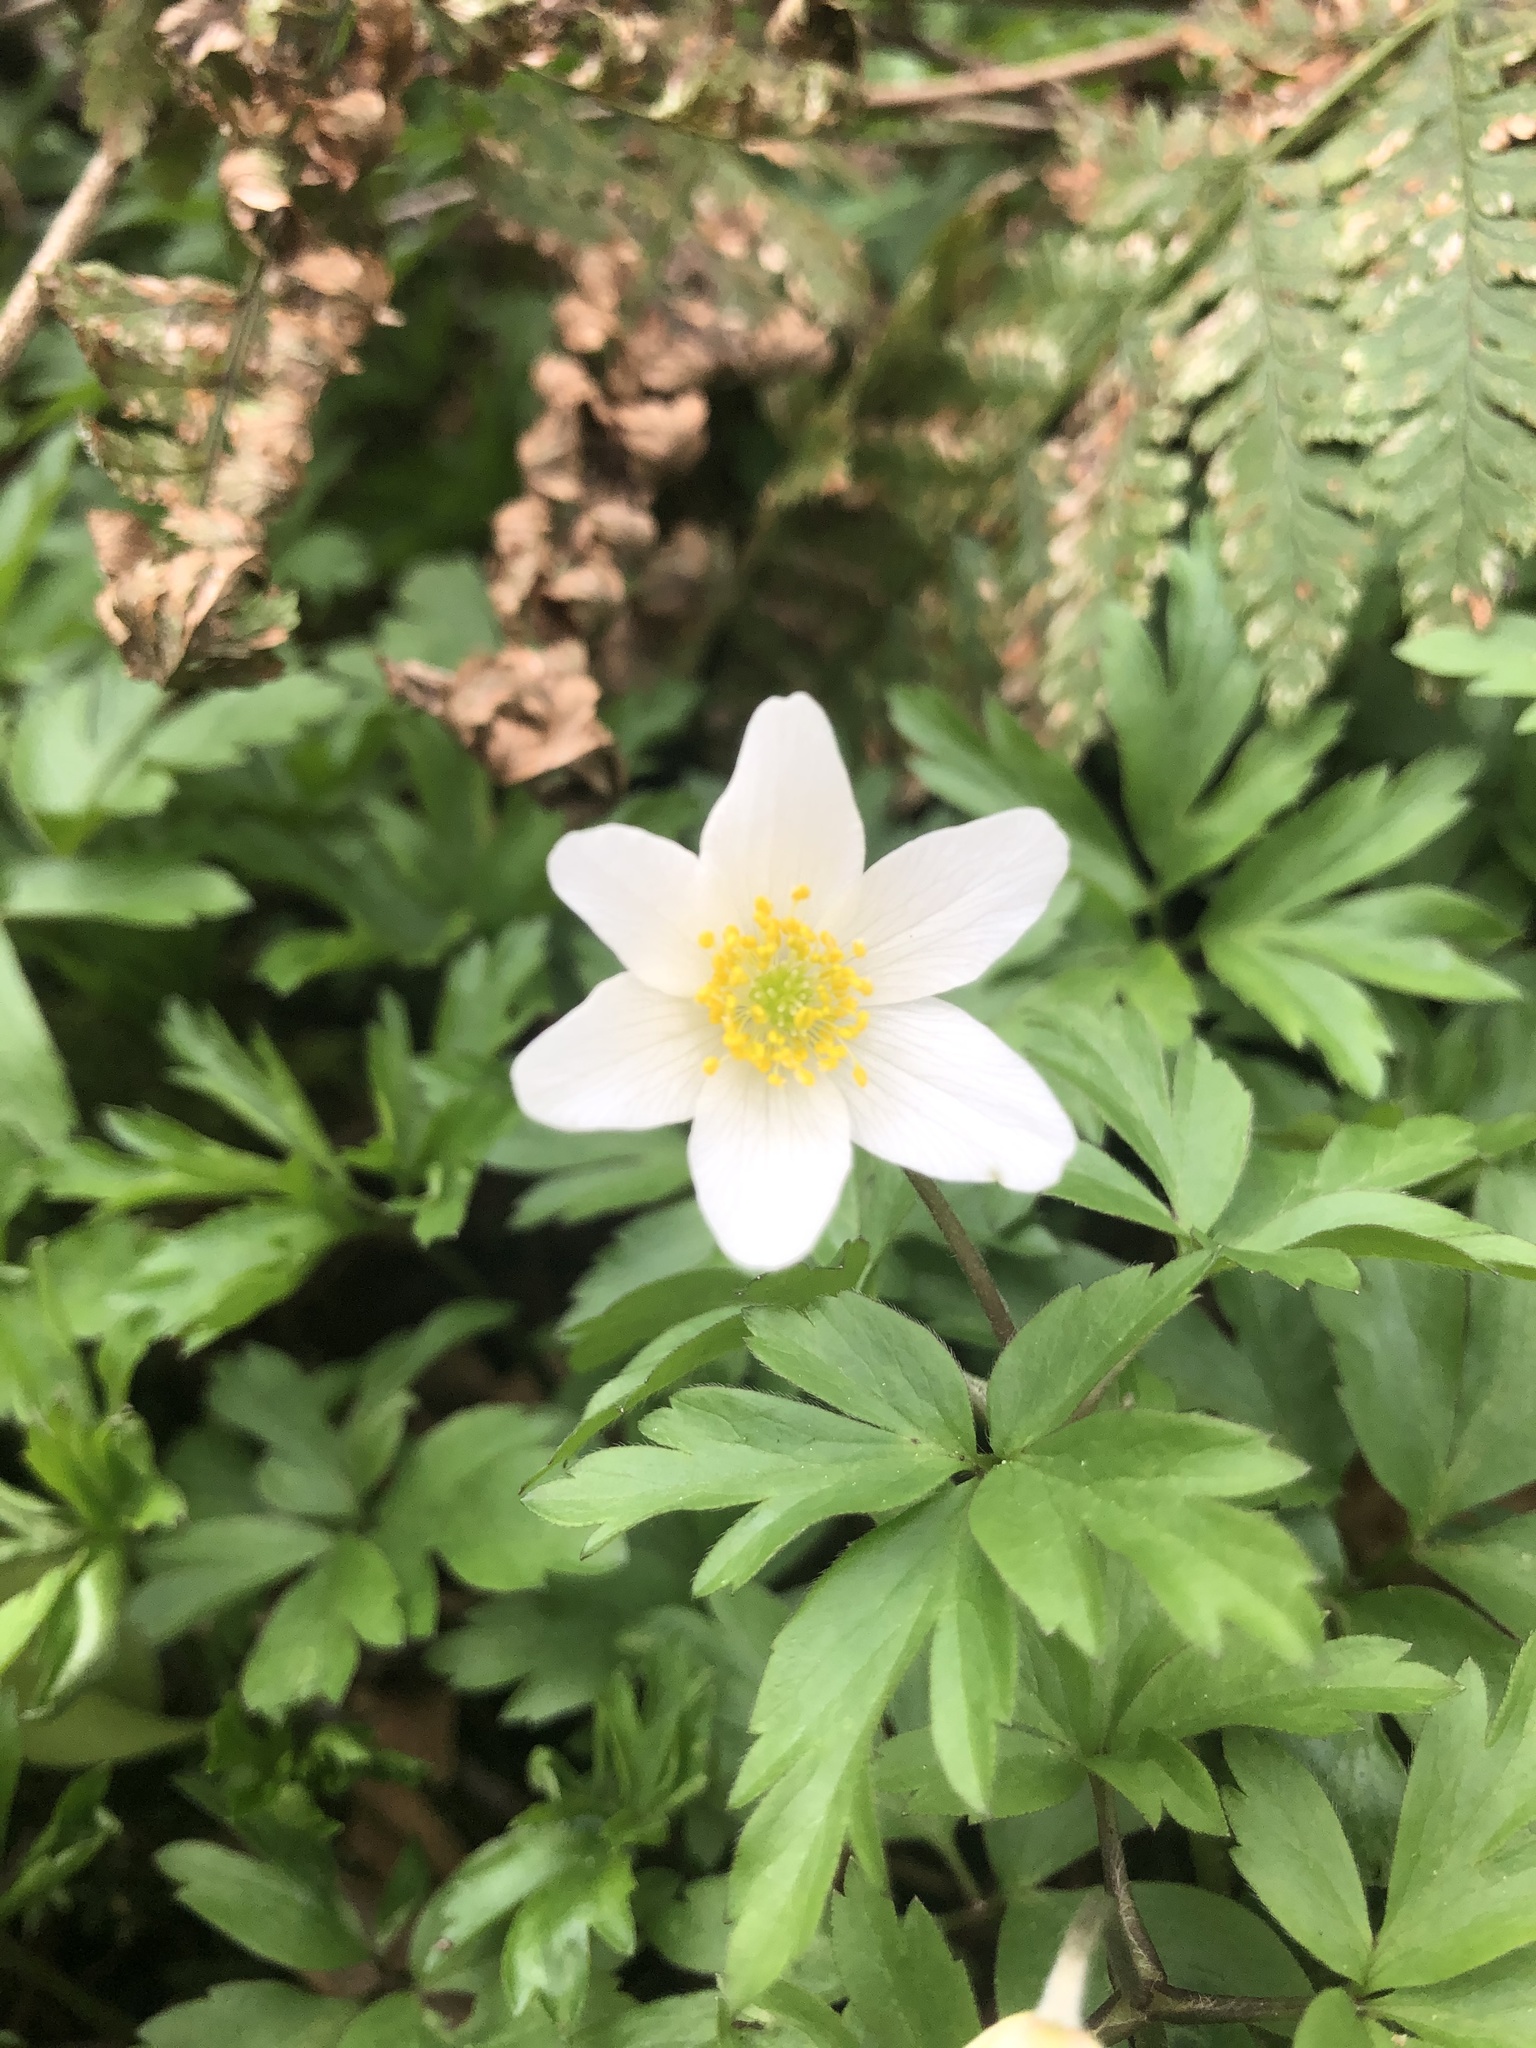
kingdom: Plantae
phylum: Tracheophyta
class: Magnoliopsida
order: Ranunculales
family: Ranunculaceae
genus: Anemone
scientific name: Anemone nemorosa
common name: Wood anemone
